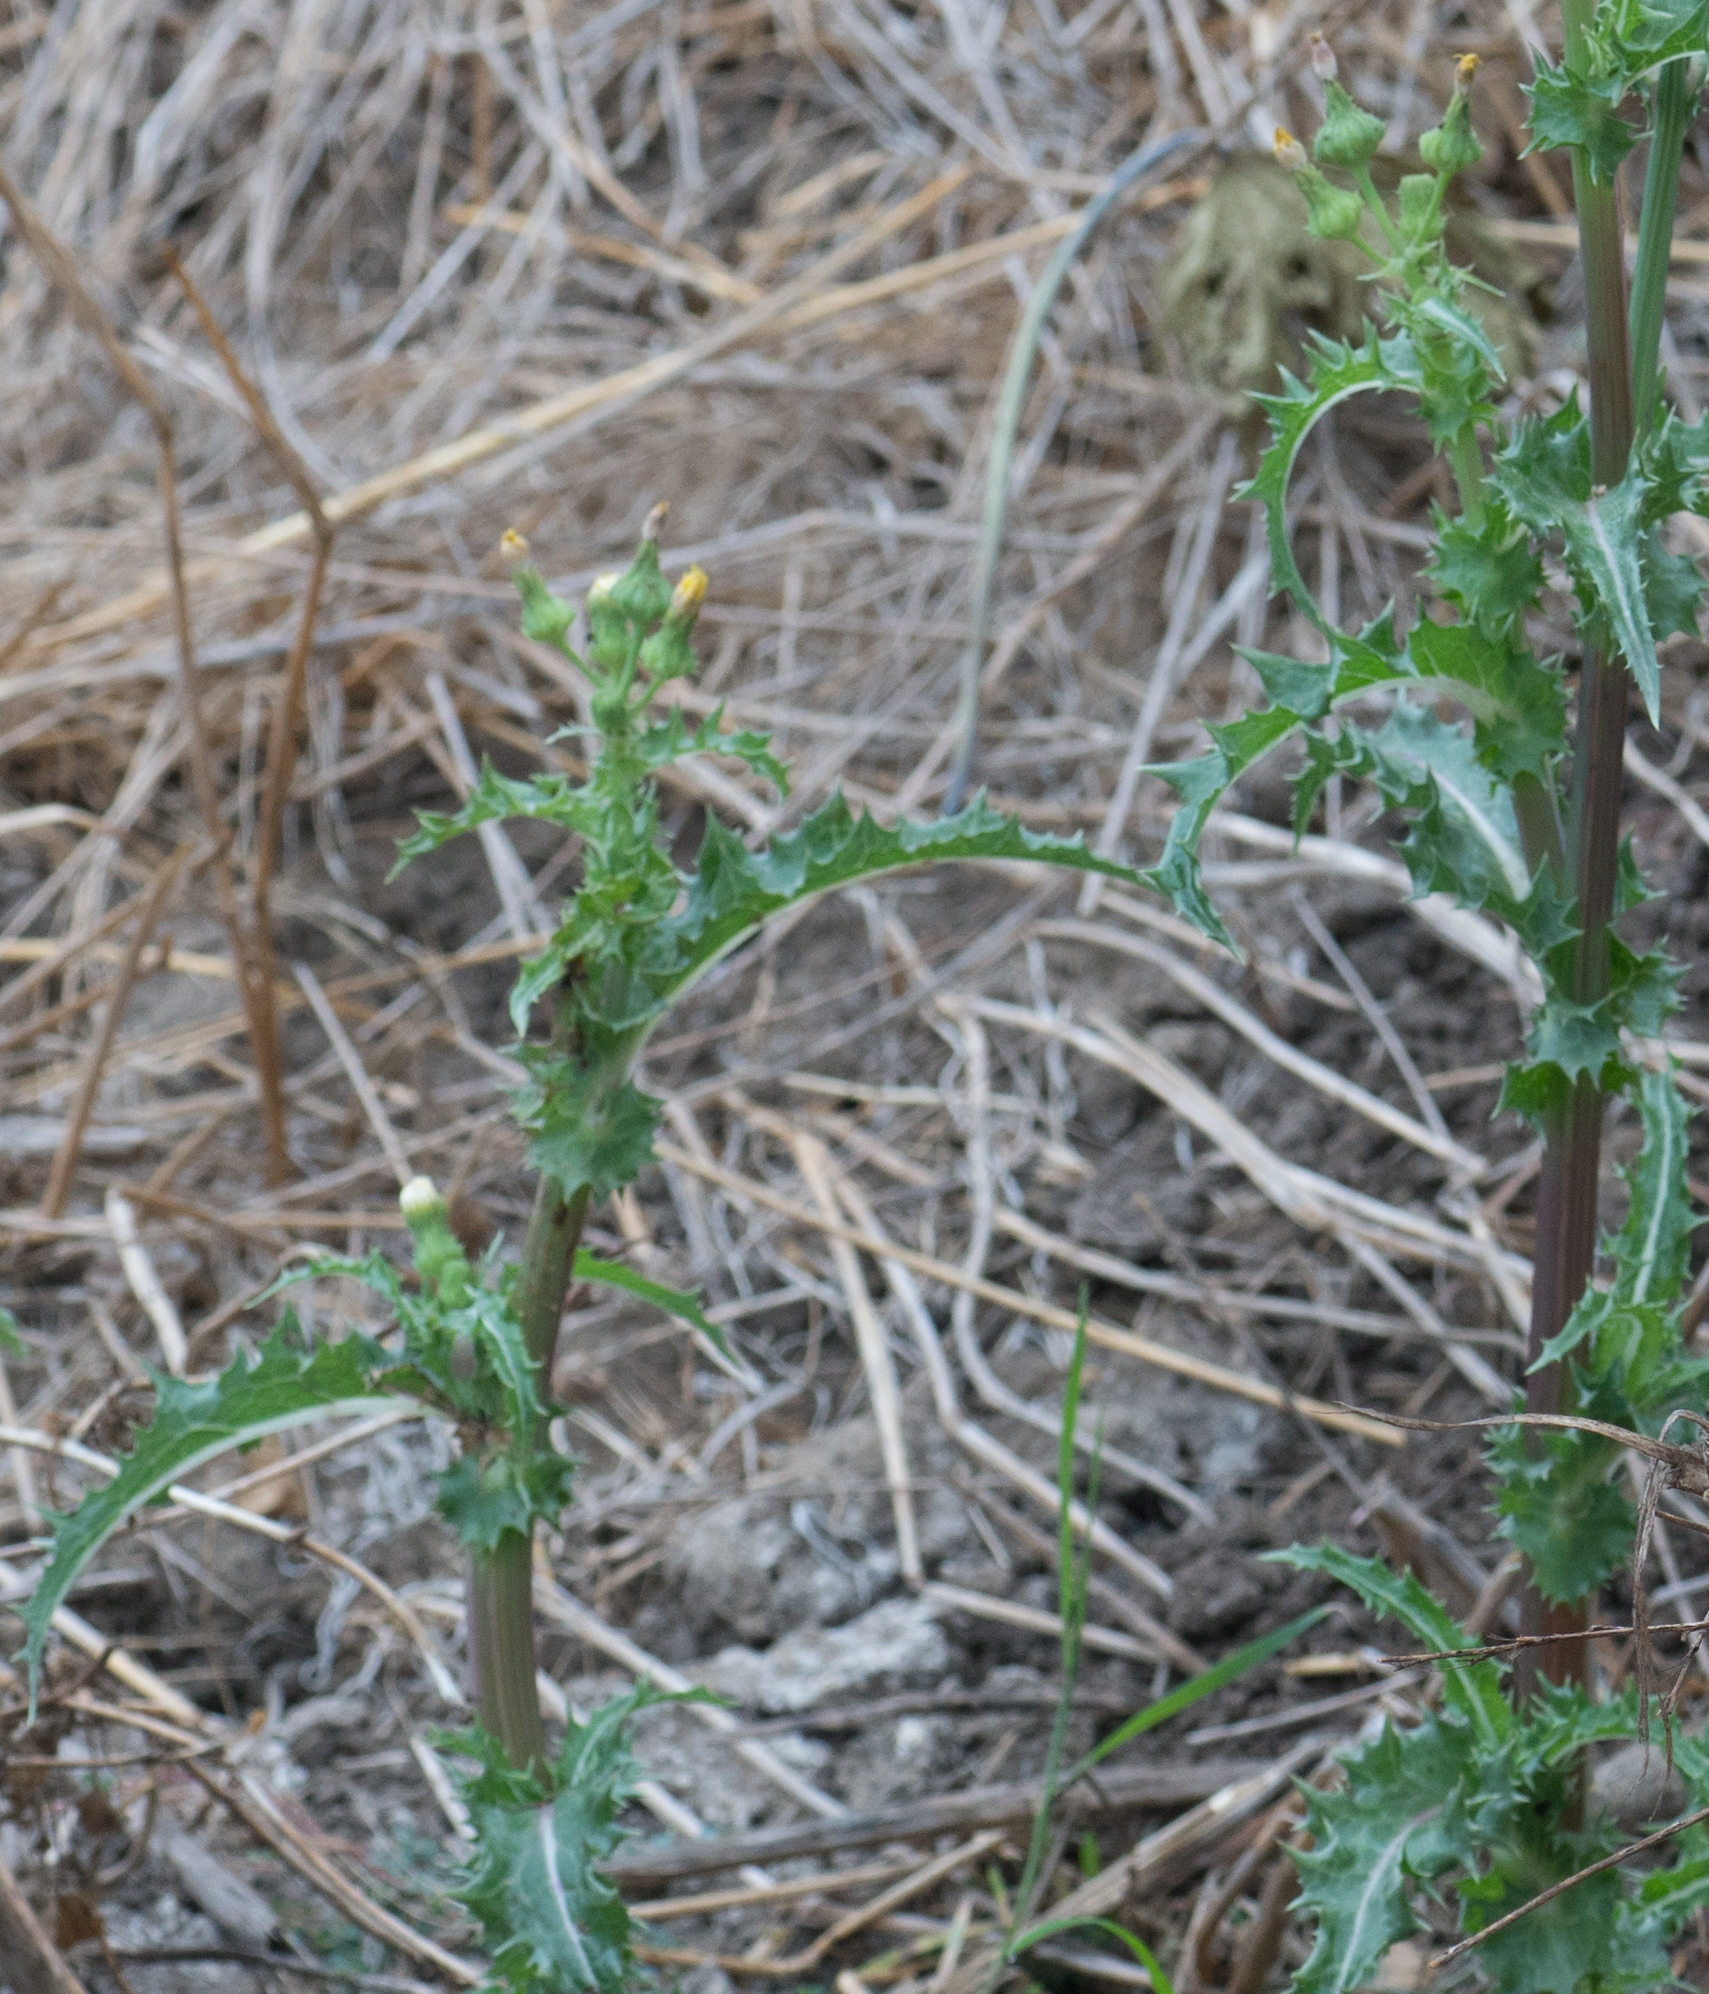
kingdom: Plantae
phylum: Tracheophyta
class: Magnoliopsida
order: Asterales
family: Asteraceae
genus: Sonchus
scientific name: Sonchus asper
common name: Prickly sow-thistle
